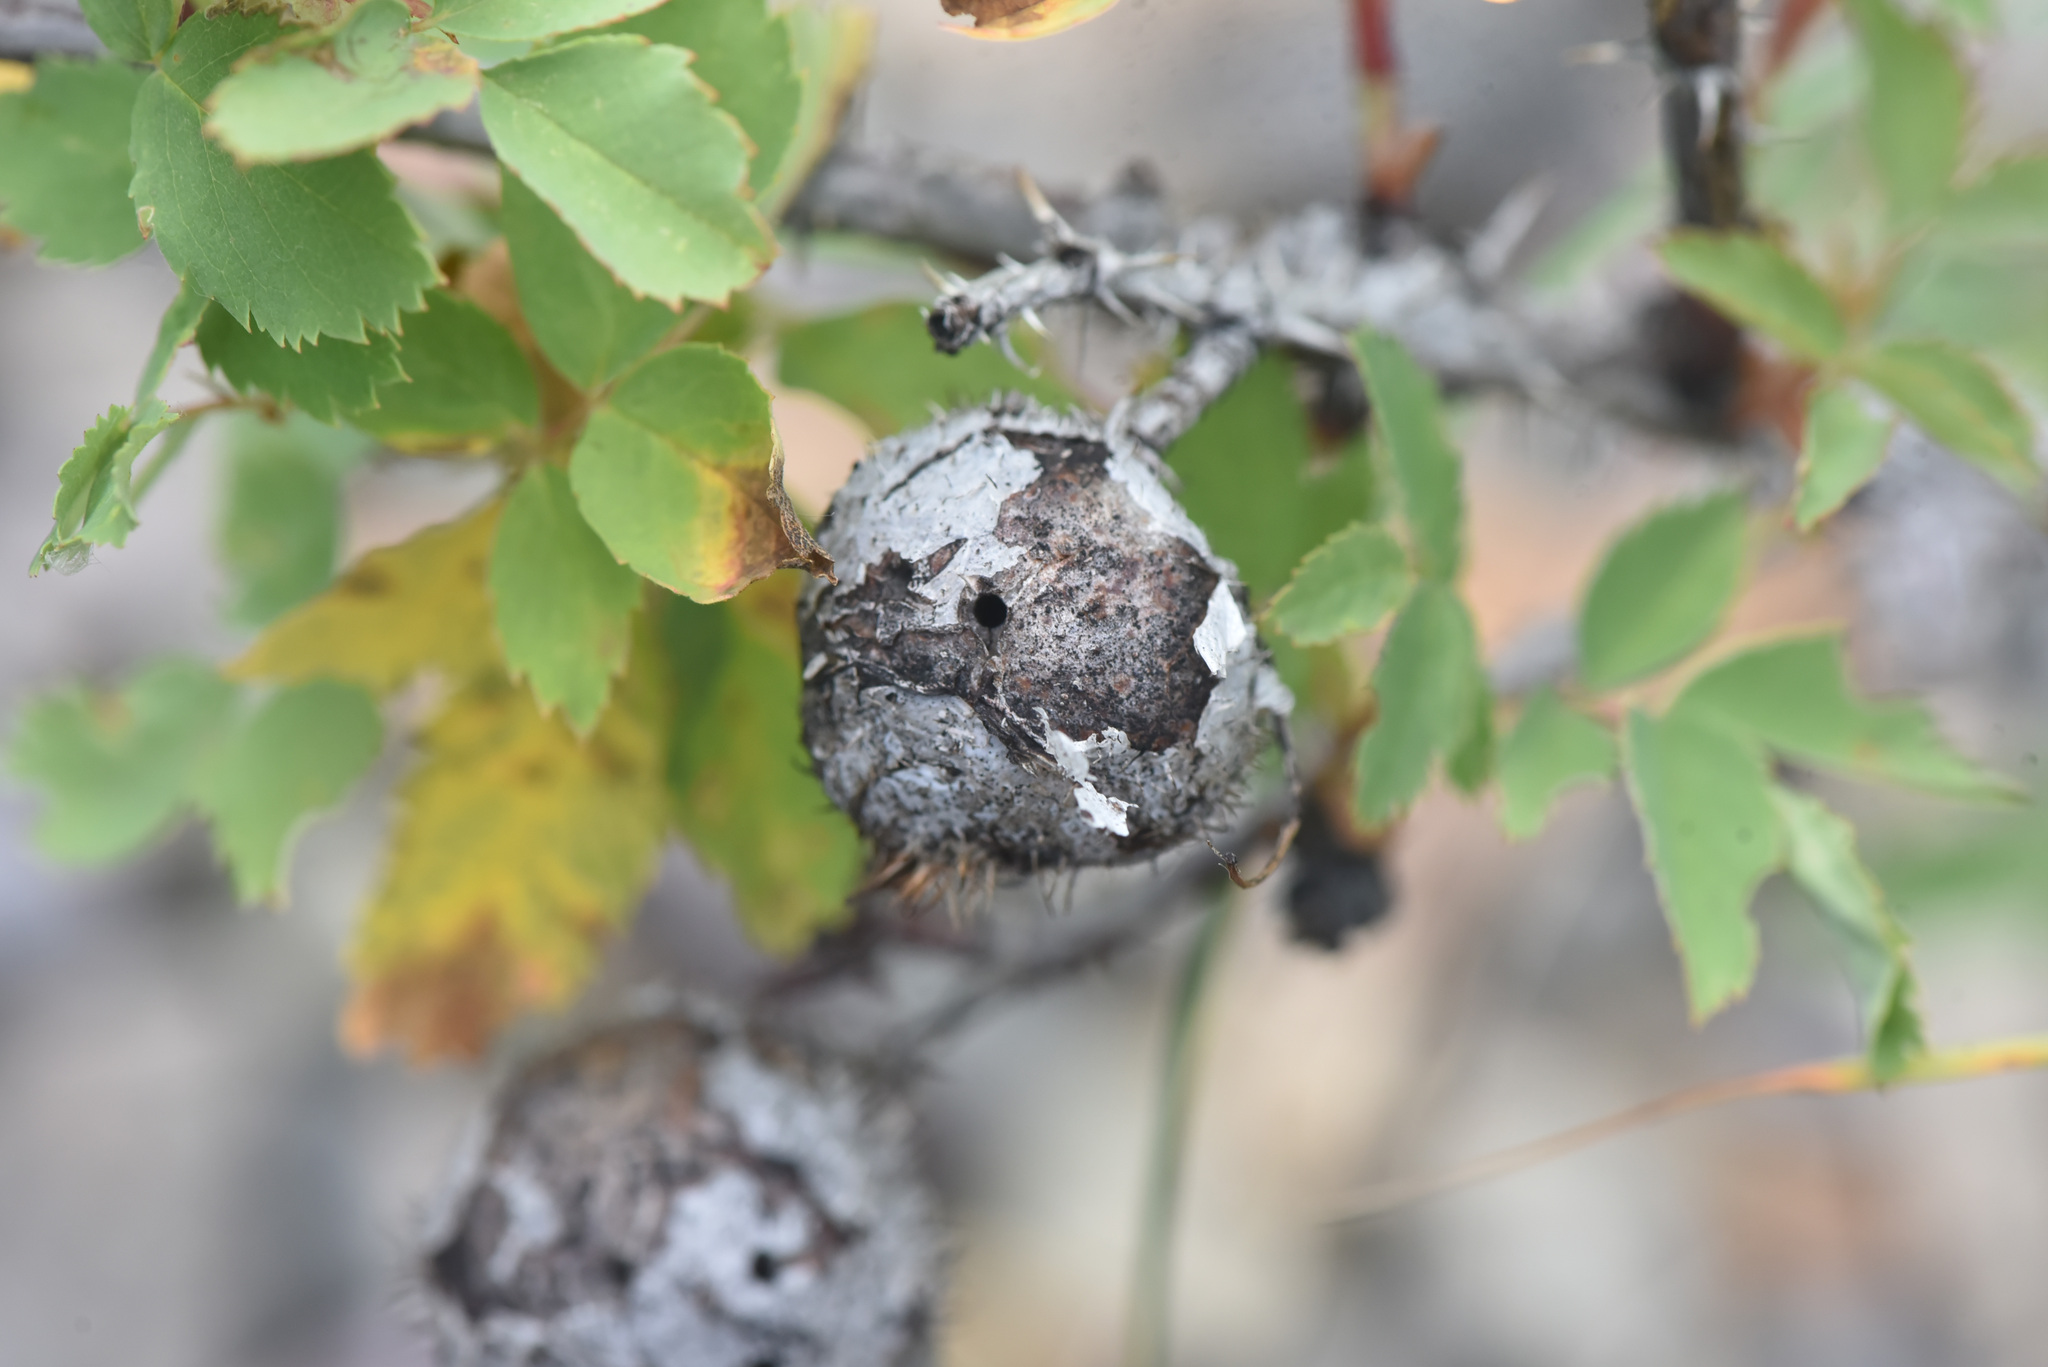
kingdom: Animalia
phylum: Arthropoda
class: Insecta
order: Hymenoptera
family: Cynipidae
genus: Diplolepis
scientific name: Diplolepis spinosa
